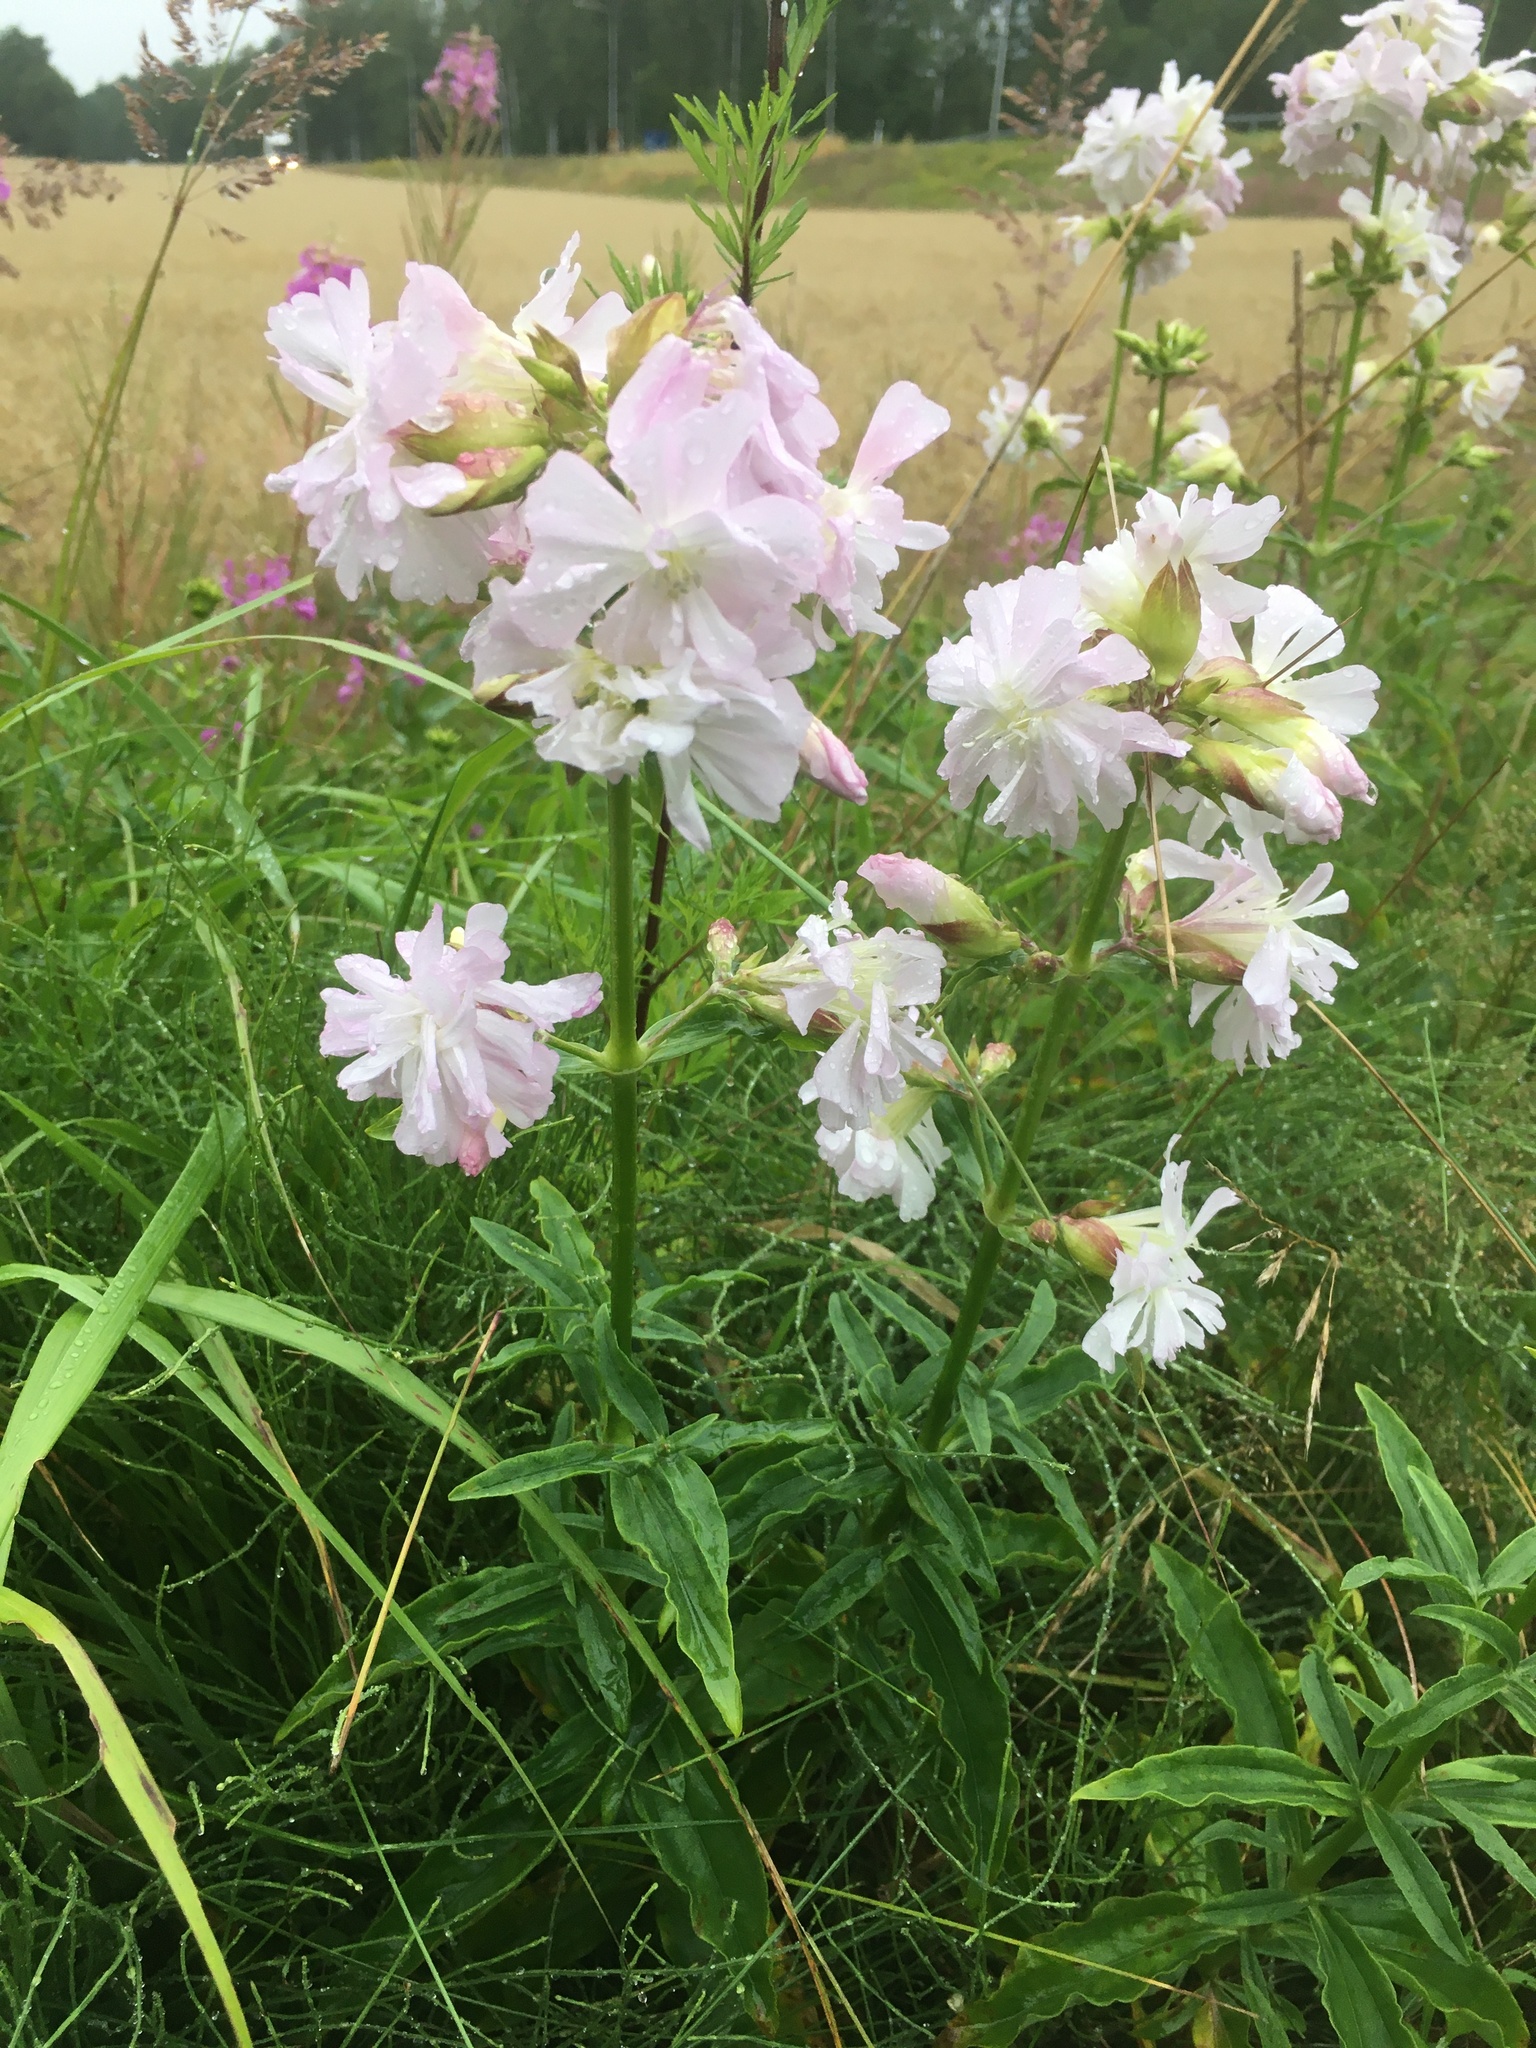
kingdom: Plantae
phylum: Tracheophyta
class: Magnoliopsida
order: Caryophyllales
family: Caryophyllaceae
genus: Saponaria
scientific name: Saponaria officinalis
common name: Soapwort
